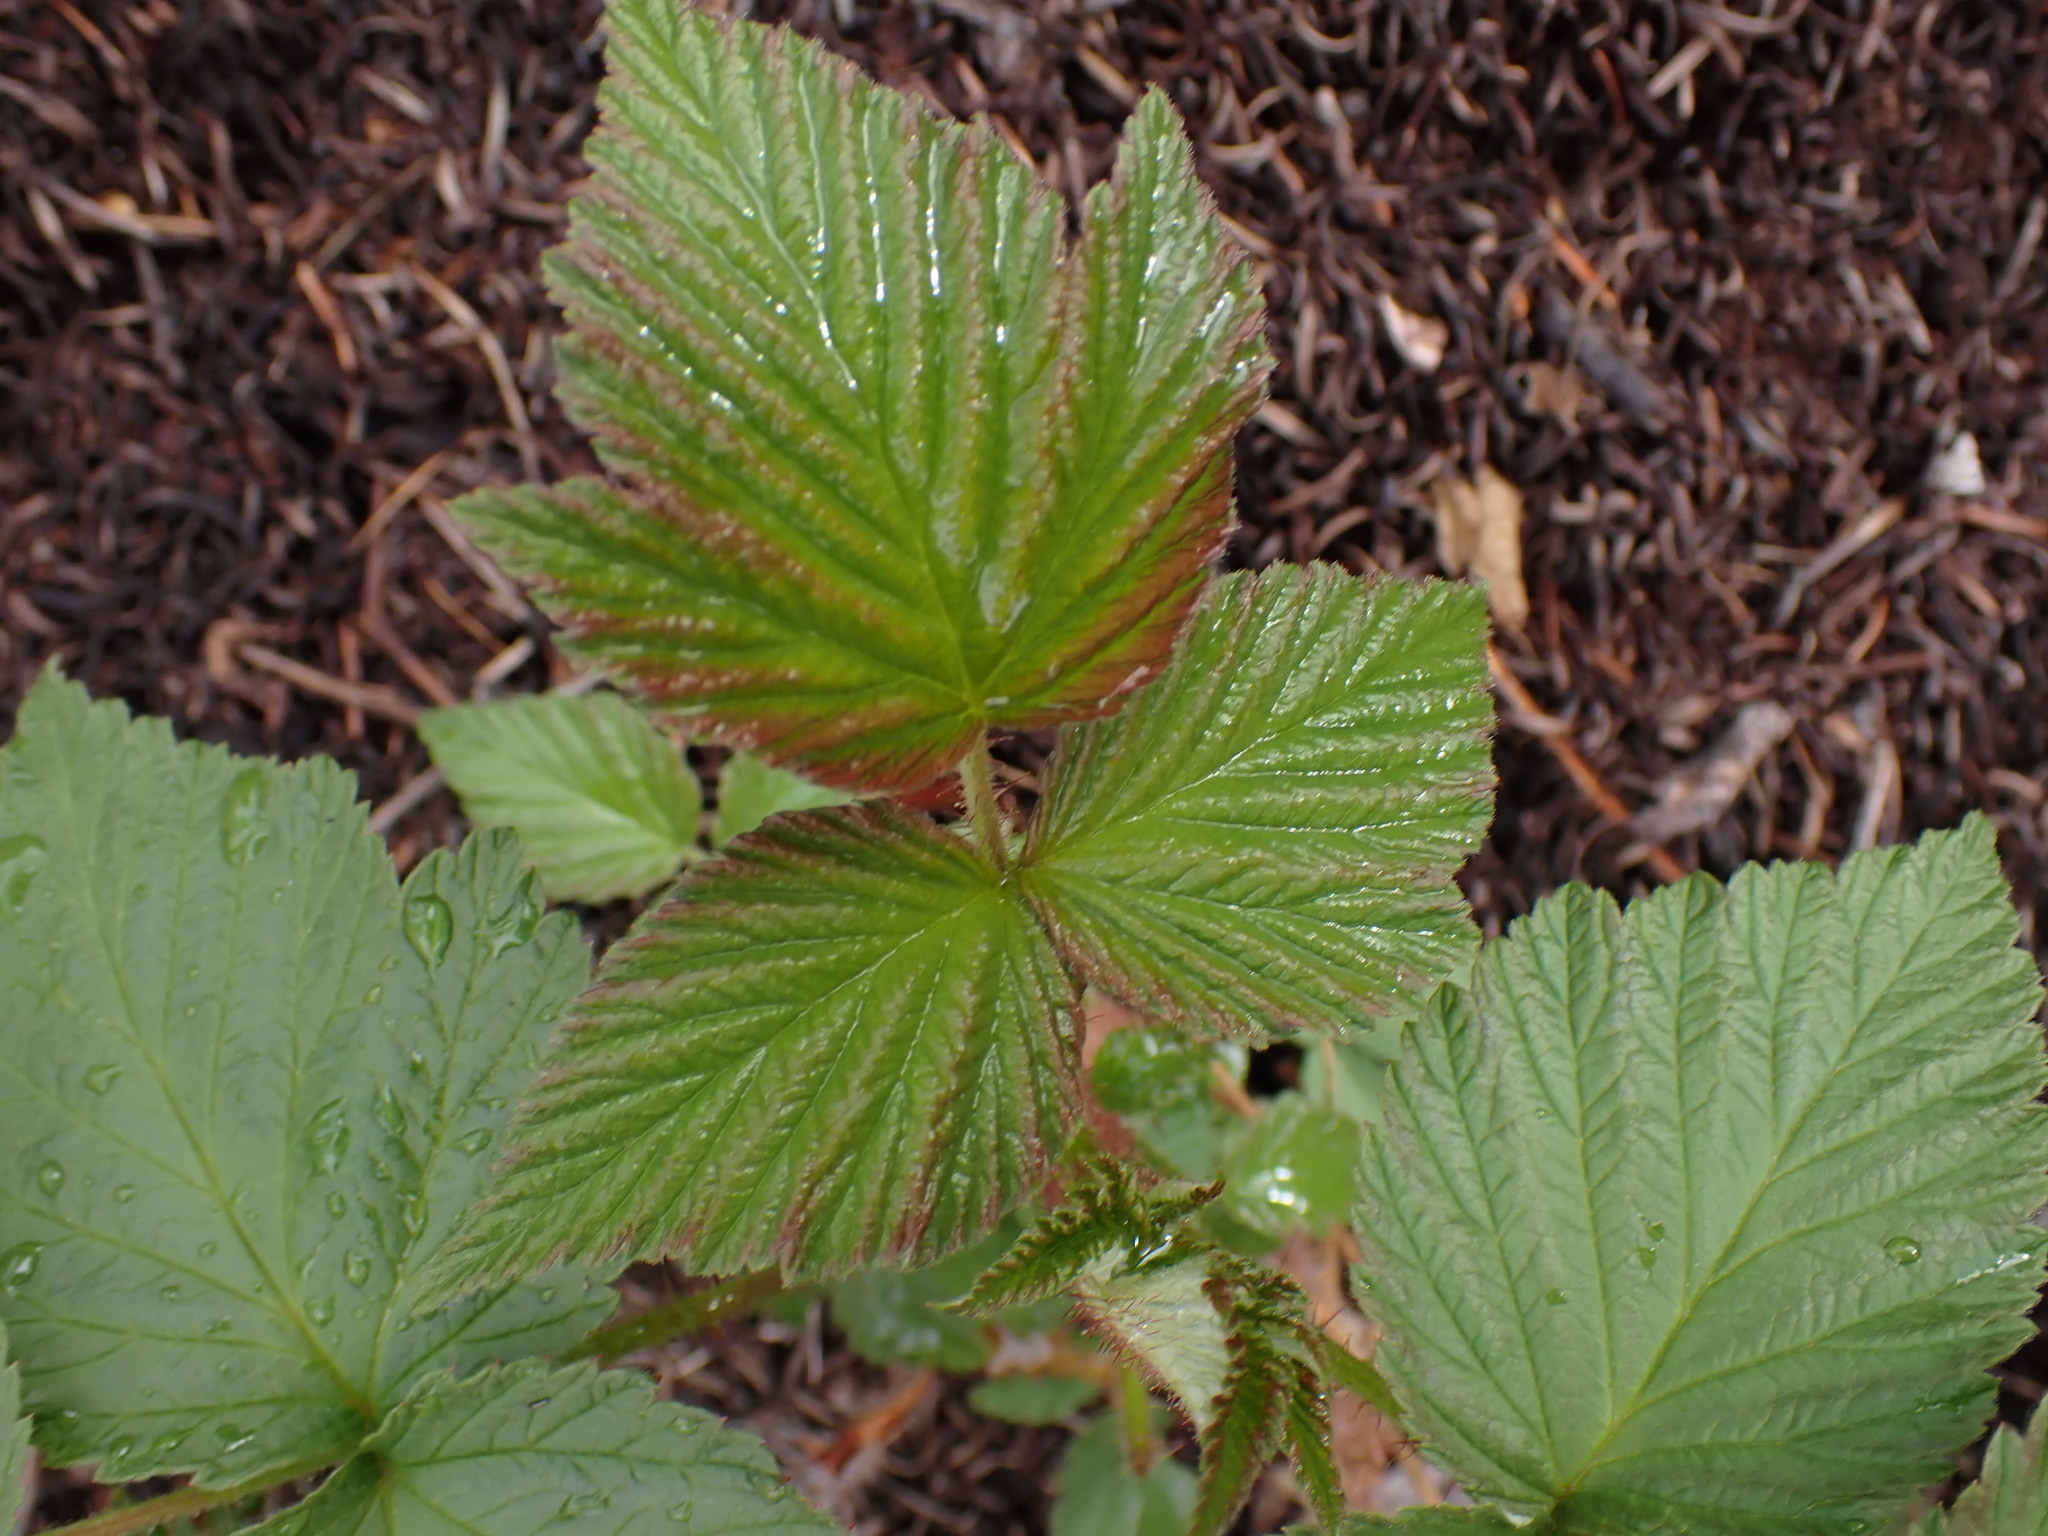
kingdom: Plantae
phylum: Tracheophyta
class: Magnoliopsida
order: Rosales
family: Rosaceae
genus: Rubus
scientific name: Rubus idaeus
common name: Raspberry
